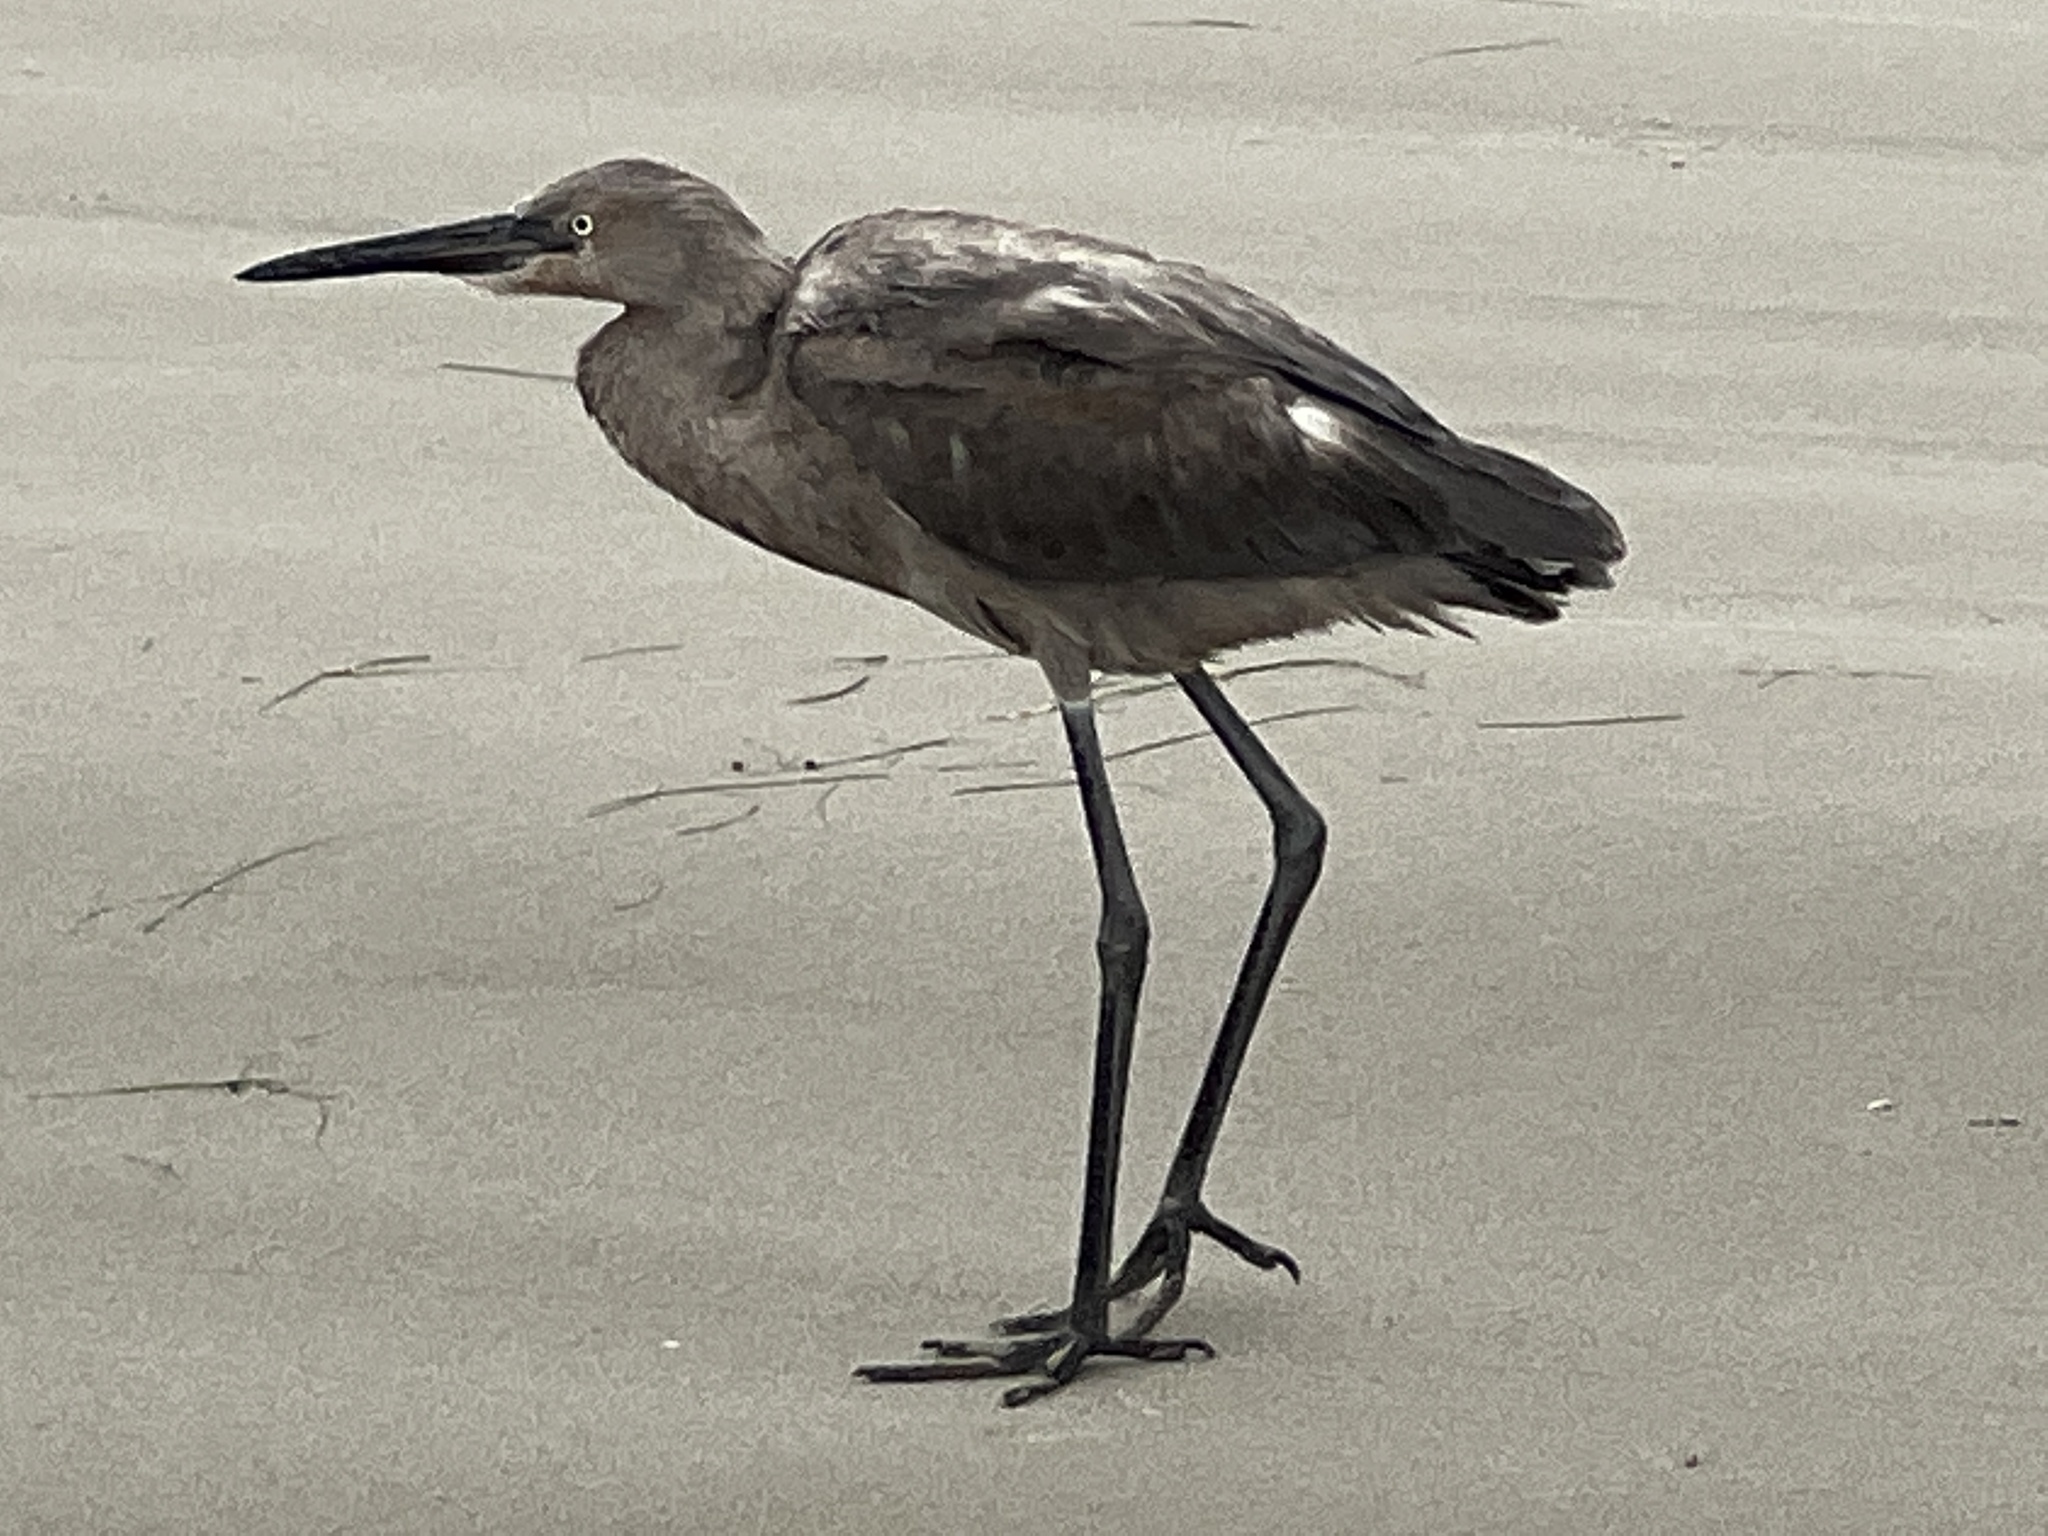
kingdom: Animalia
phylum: Chordata
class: Aves
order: Pelecaniformes
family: Ardeidae
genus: Egretta
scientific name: Egretta rufescens
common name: Reddish egret
